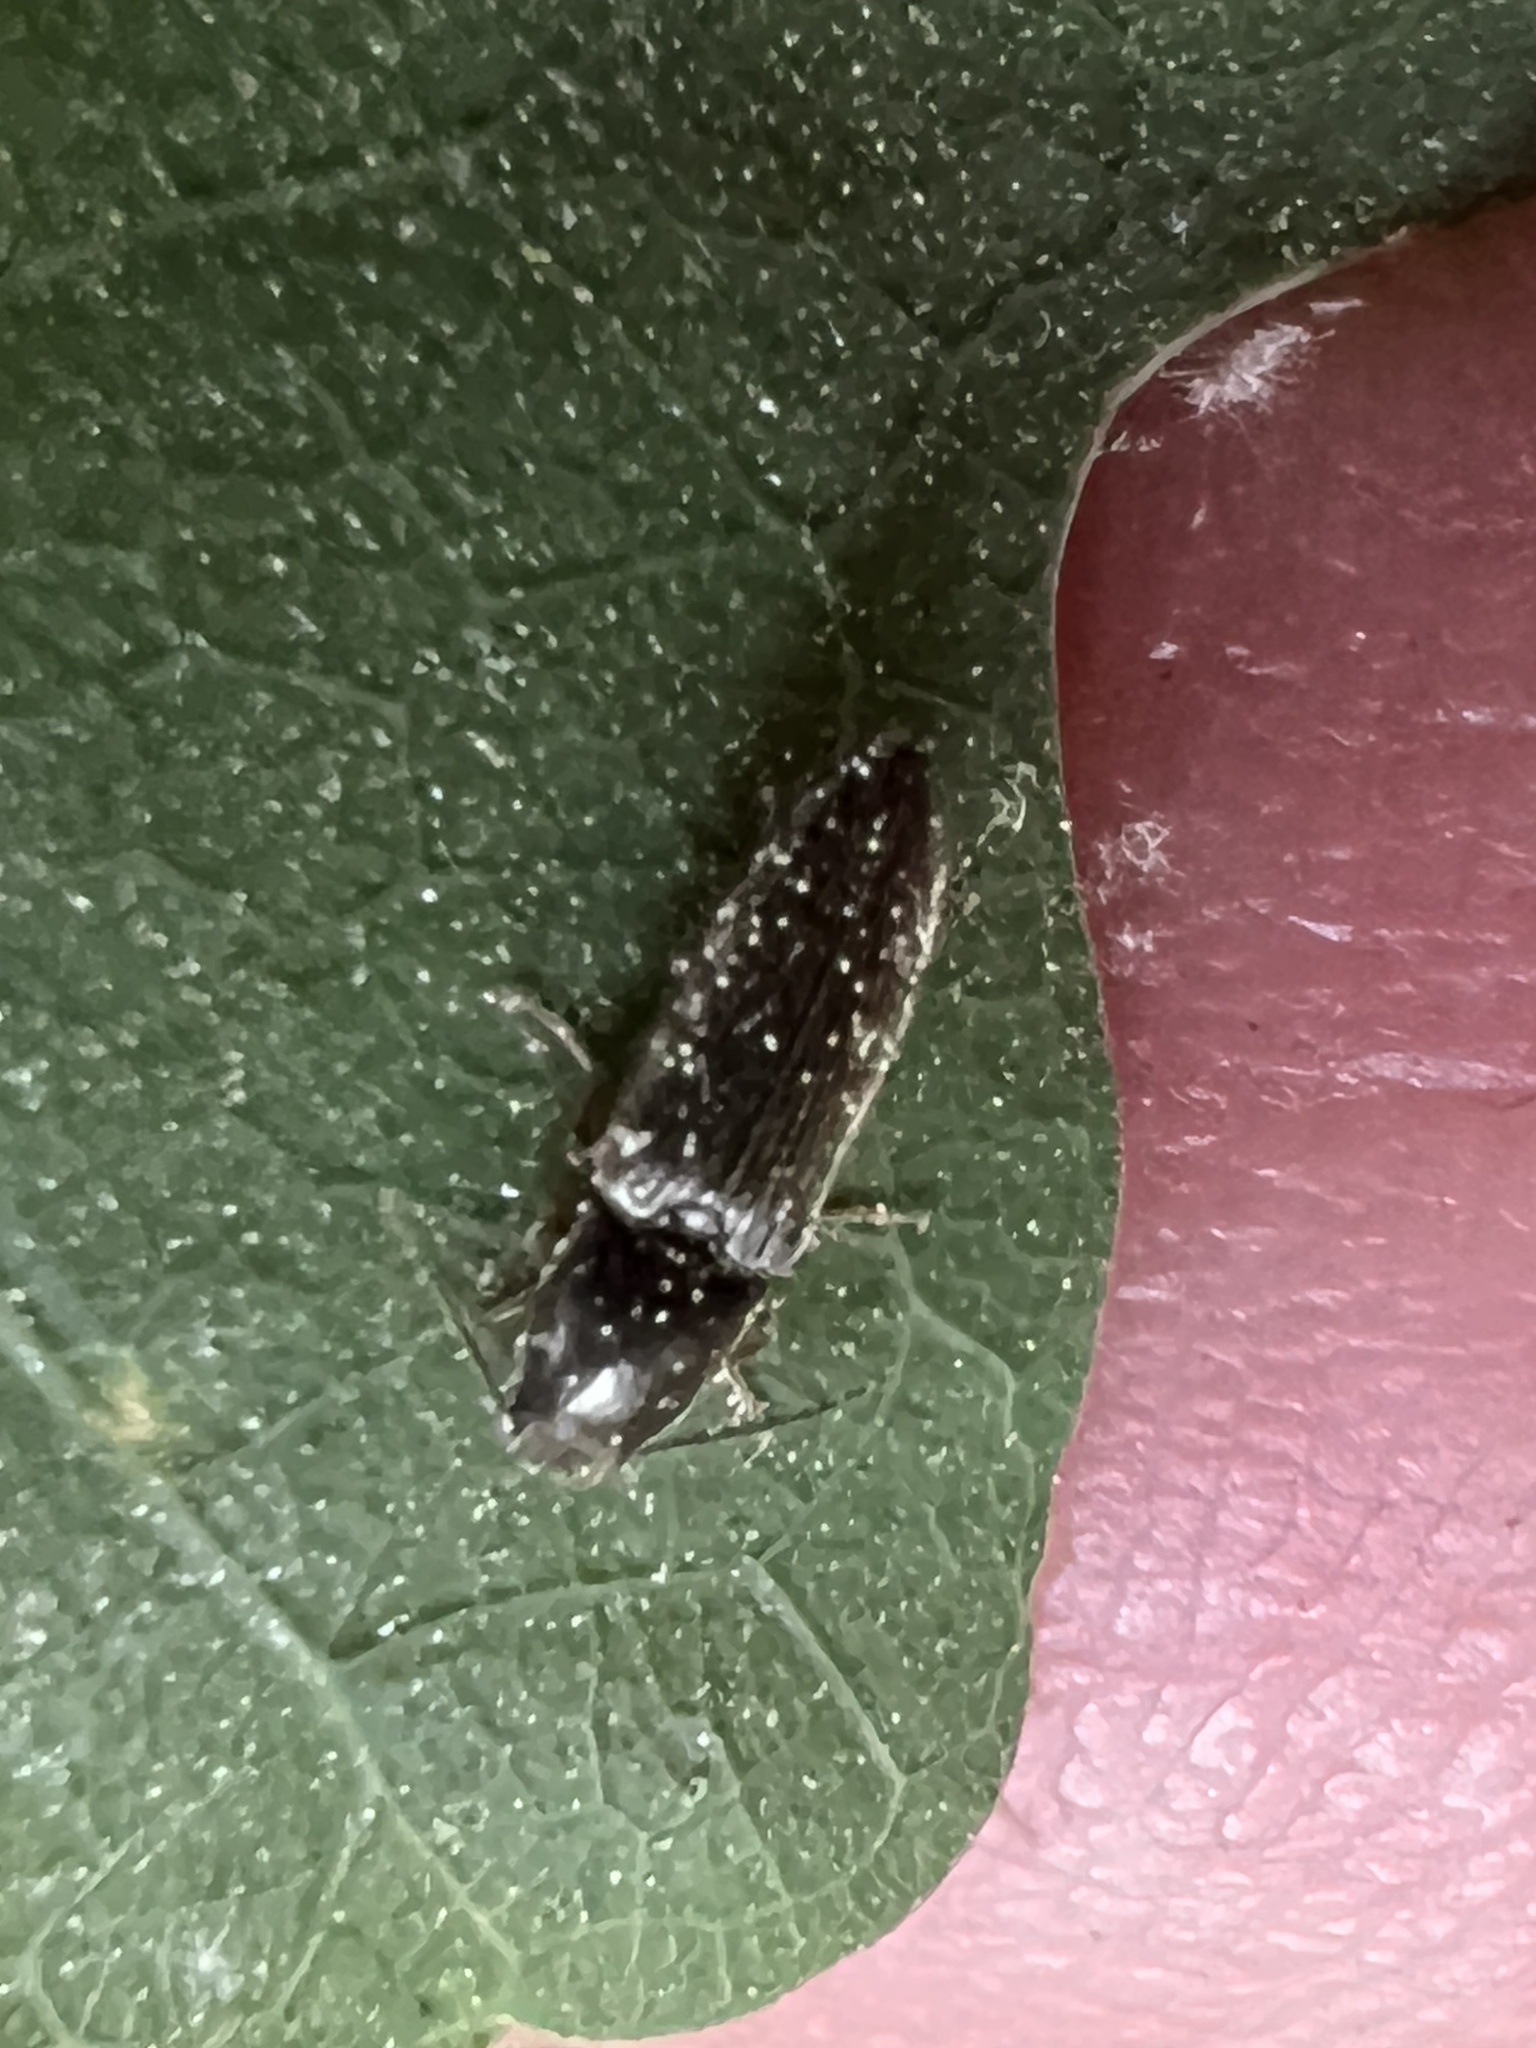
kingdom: Animalia
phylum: Arthropoda
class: Insecta
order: Coleoptera
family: Elateridae
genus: Limonius
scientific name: Limonius quercinus
